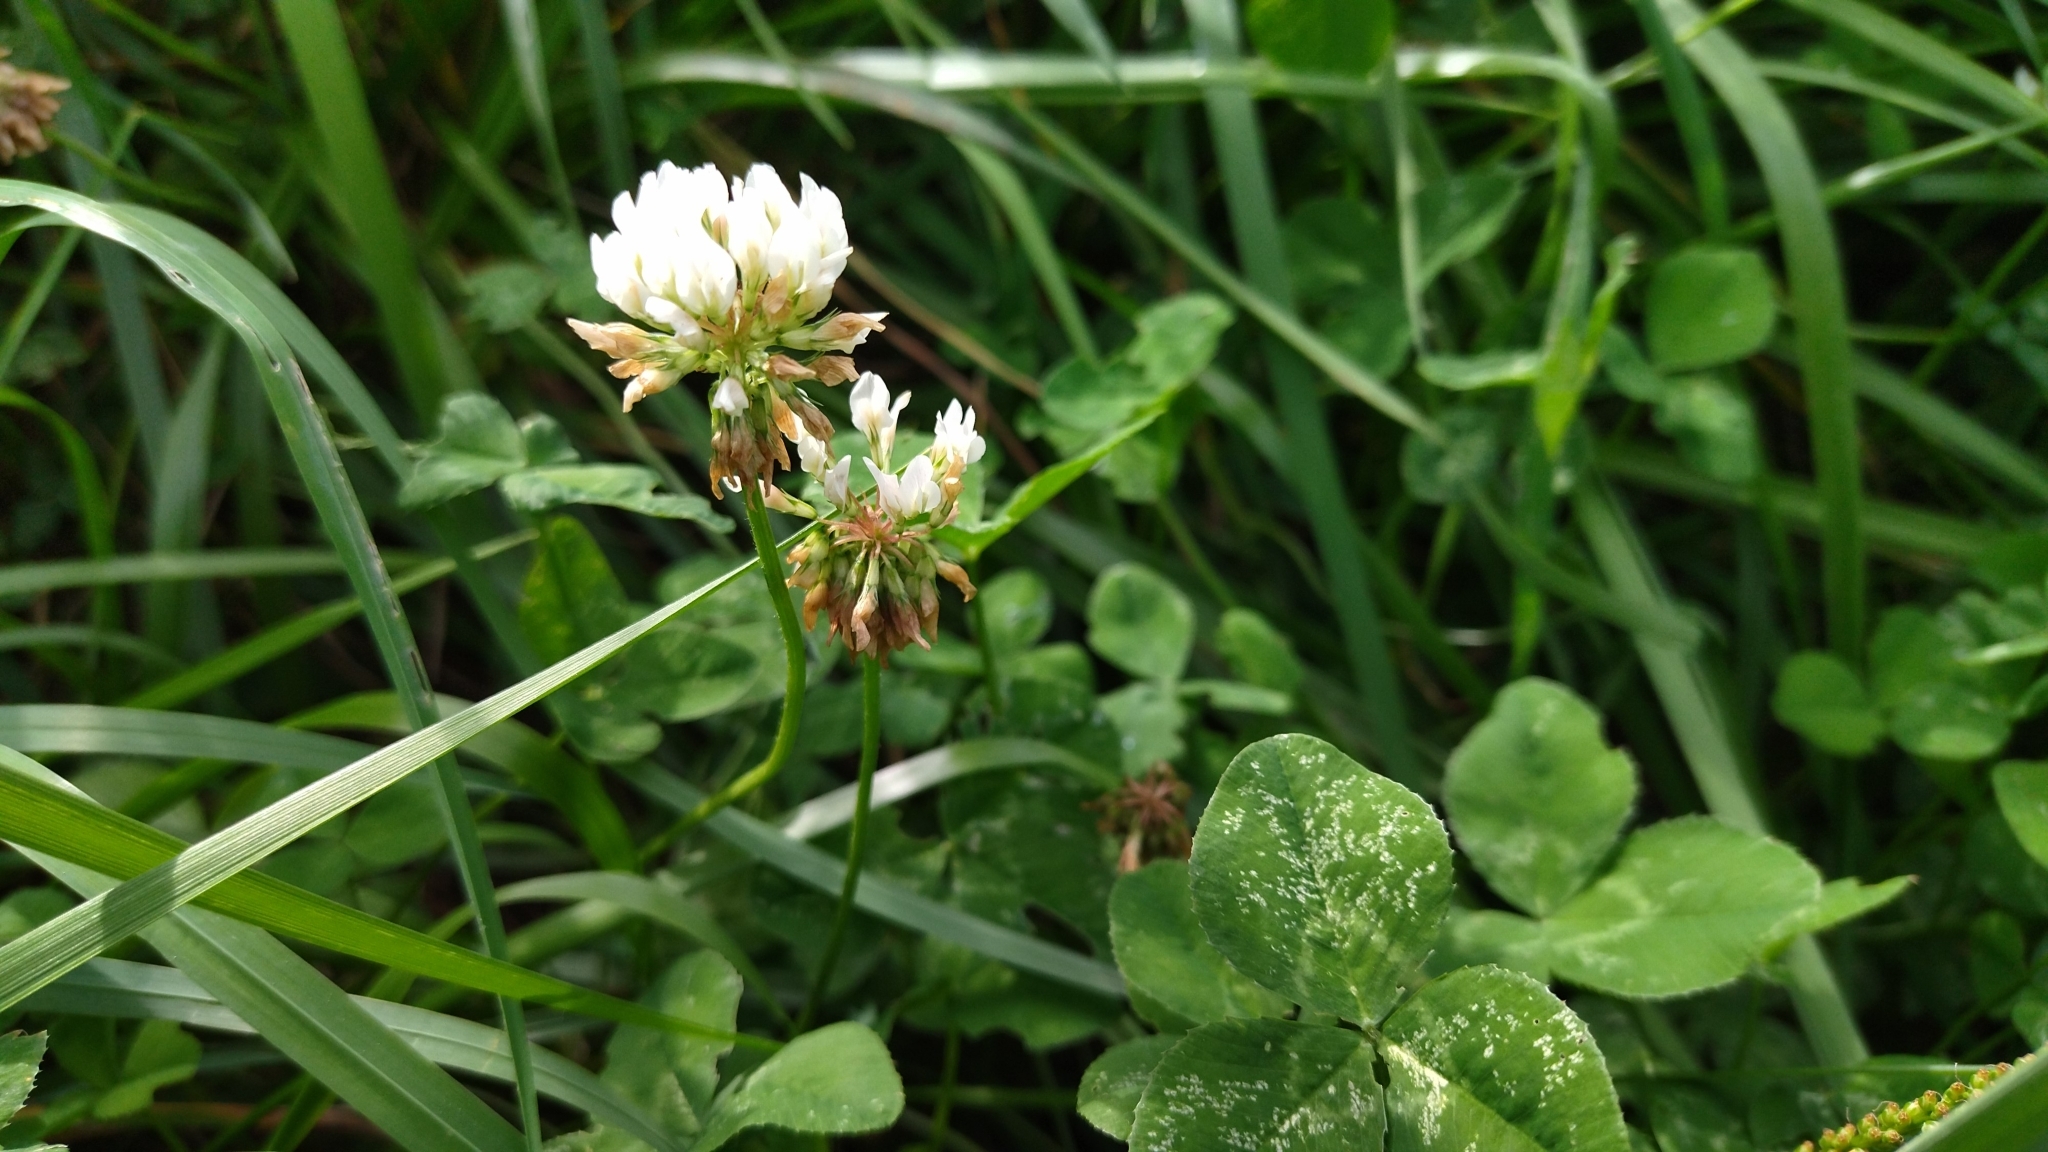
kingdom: Plantae
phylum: Tracheophyta
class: Magnoliopsida
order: Fabales
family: Fabaceae
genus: Trifolium
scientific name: Trifolium repens
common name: White clover
